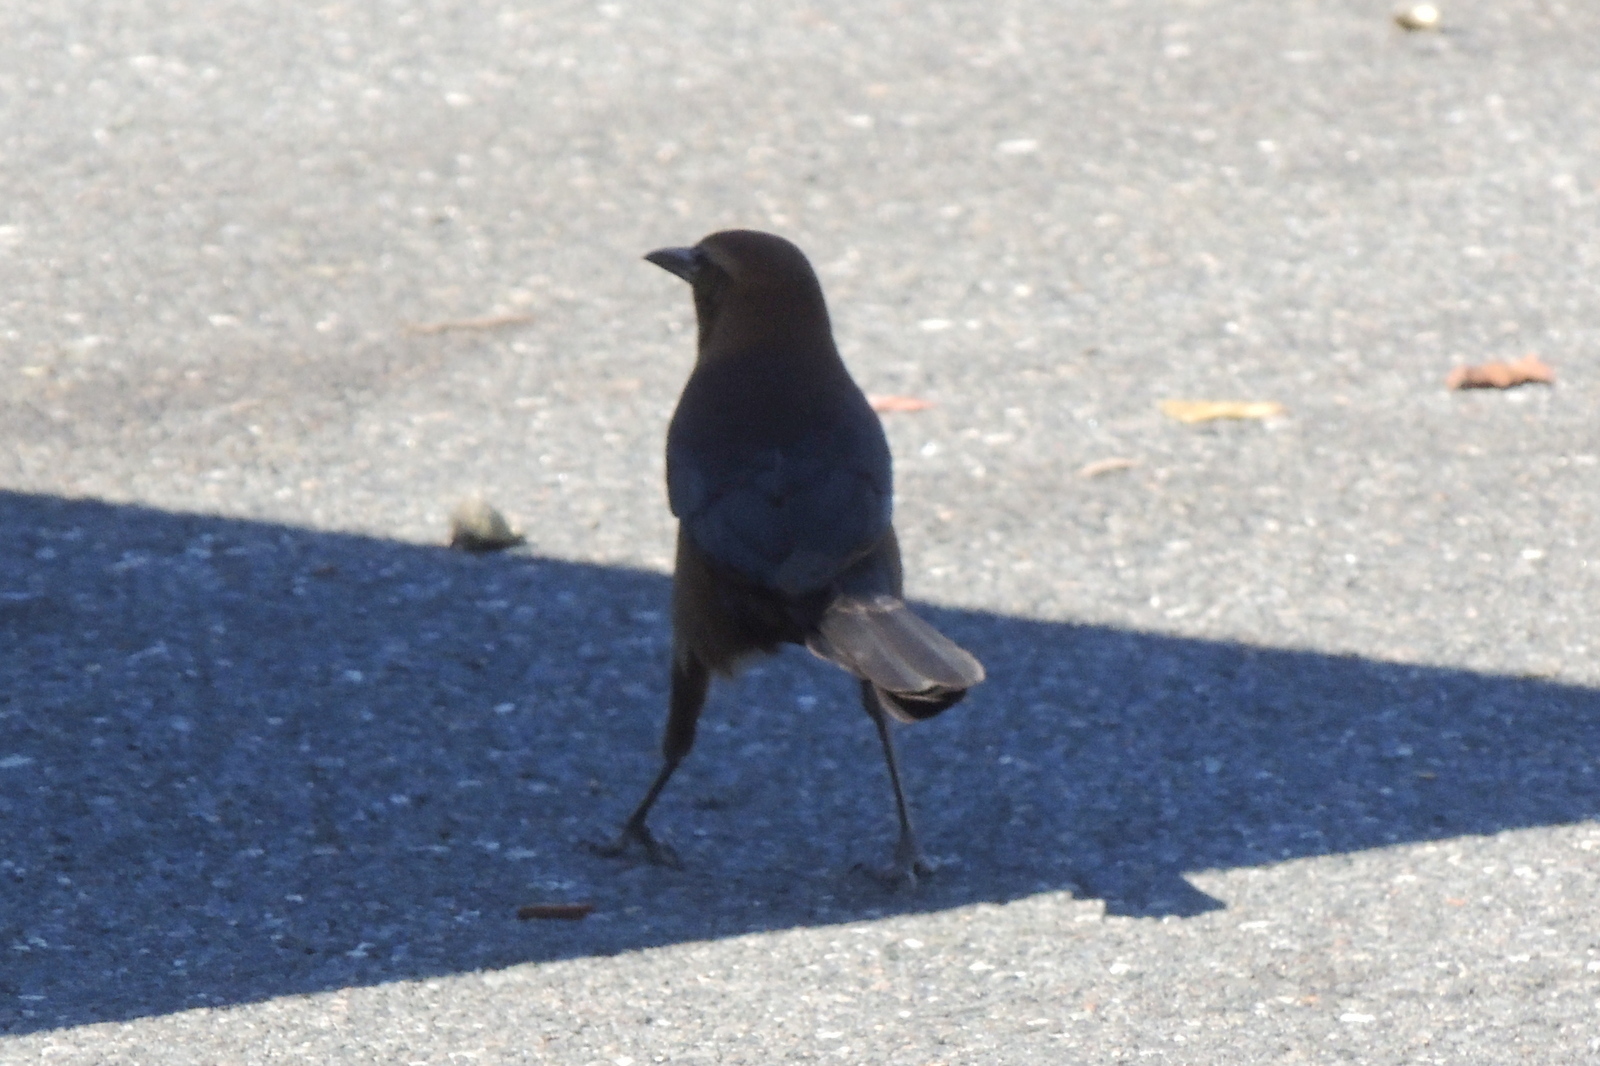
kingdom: Animalia
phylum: Chordata
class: Aves
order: Passeriformes
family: Icteridae
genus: Quiscalus
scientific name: Quiscalus major
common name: Boat-tailed grackle
